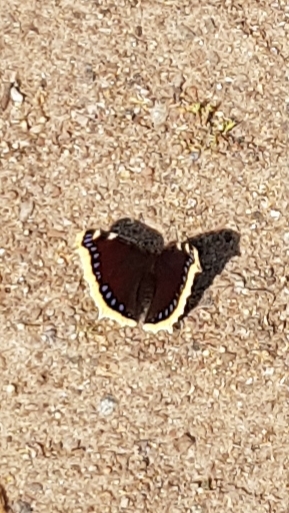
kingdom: Animalia
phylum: Arthropoda
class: Insecta
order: Lepidoptera
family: Nymphalidae
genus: Nymphalis
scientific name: Nymphalis antiopa
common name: Camberwell beauty
